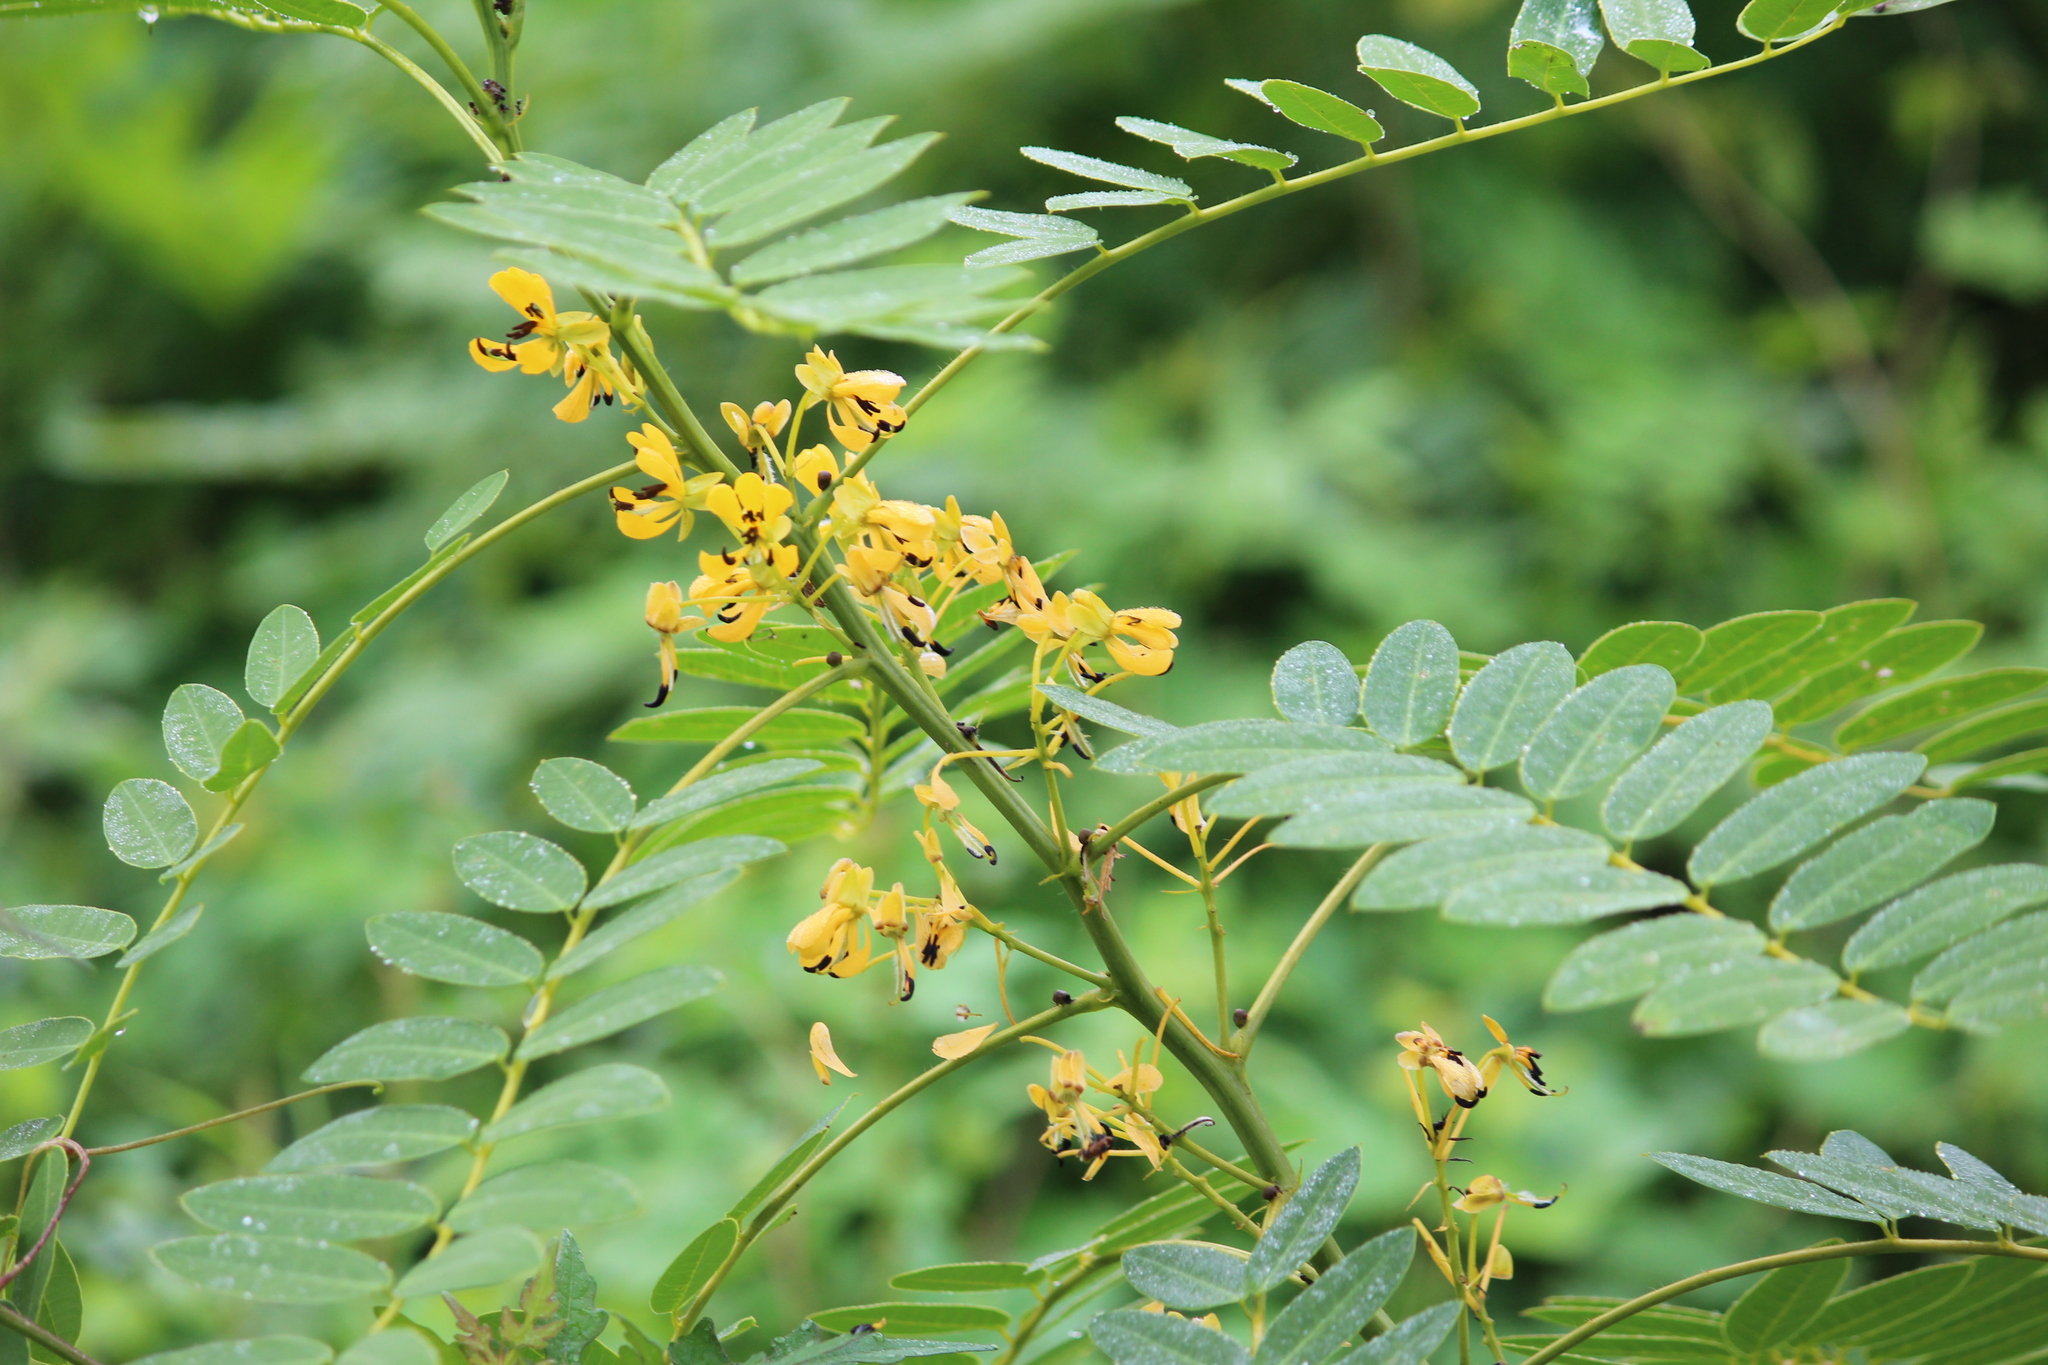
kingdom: Plantae
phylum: Tracheophyta
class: Magnoliopsida
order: Fabales
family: Fabaceae
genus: Senna
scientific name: Senna hebecarpa
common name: Wild senna
